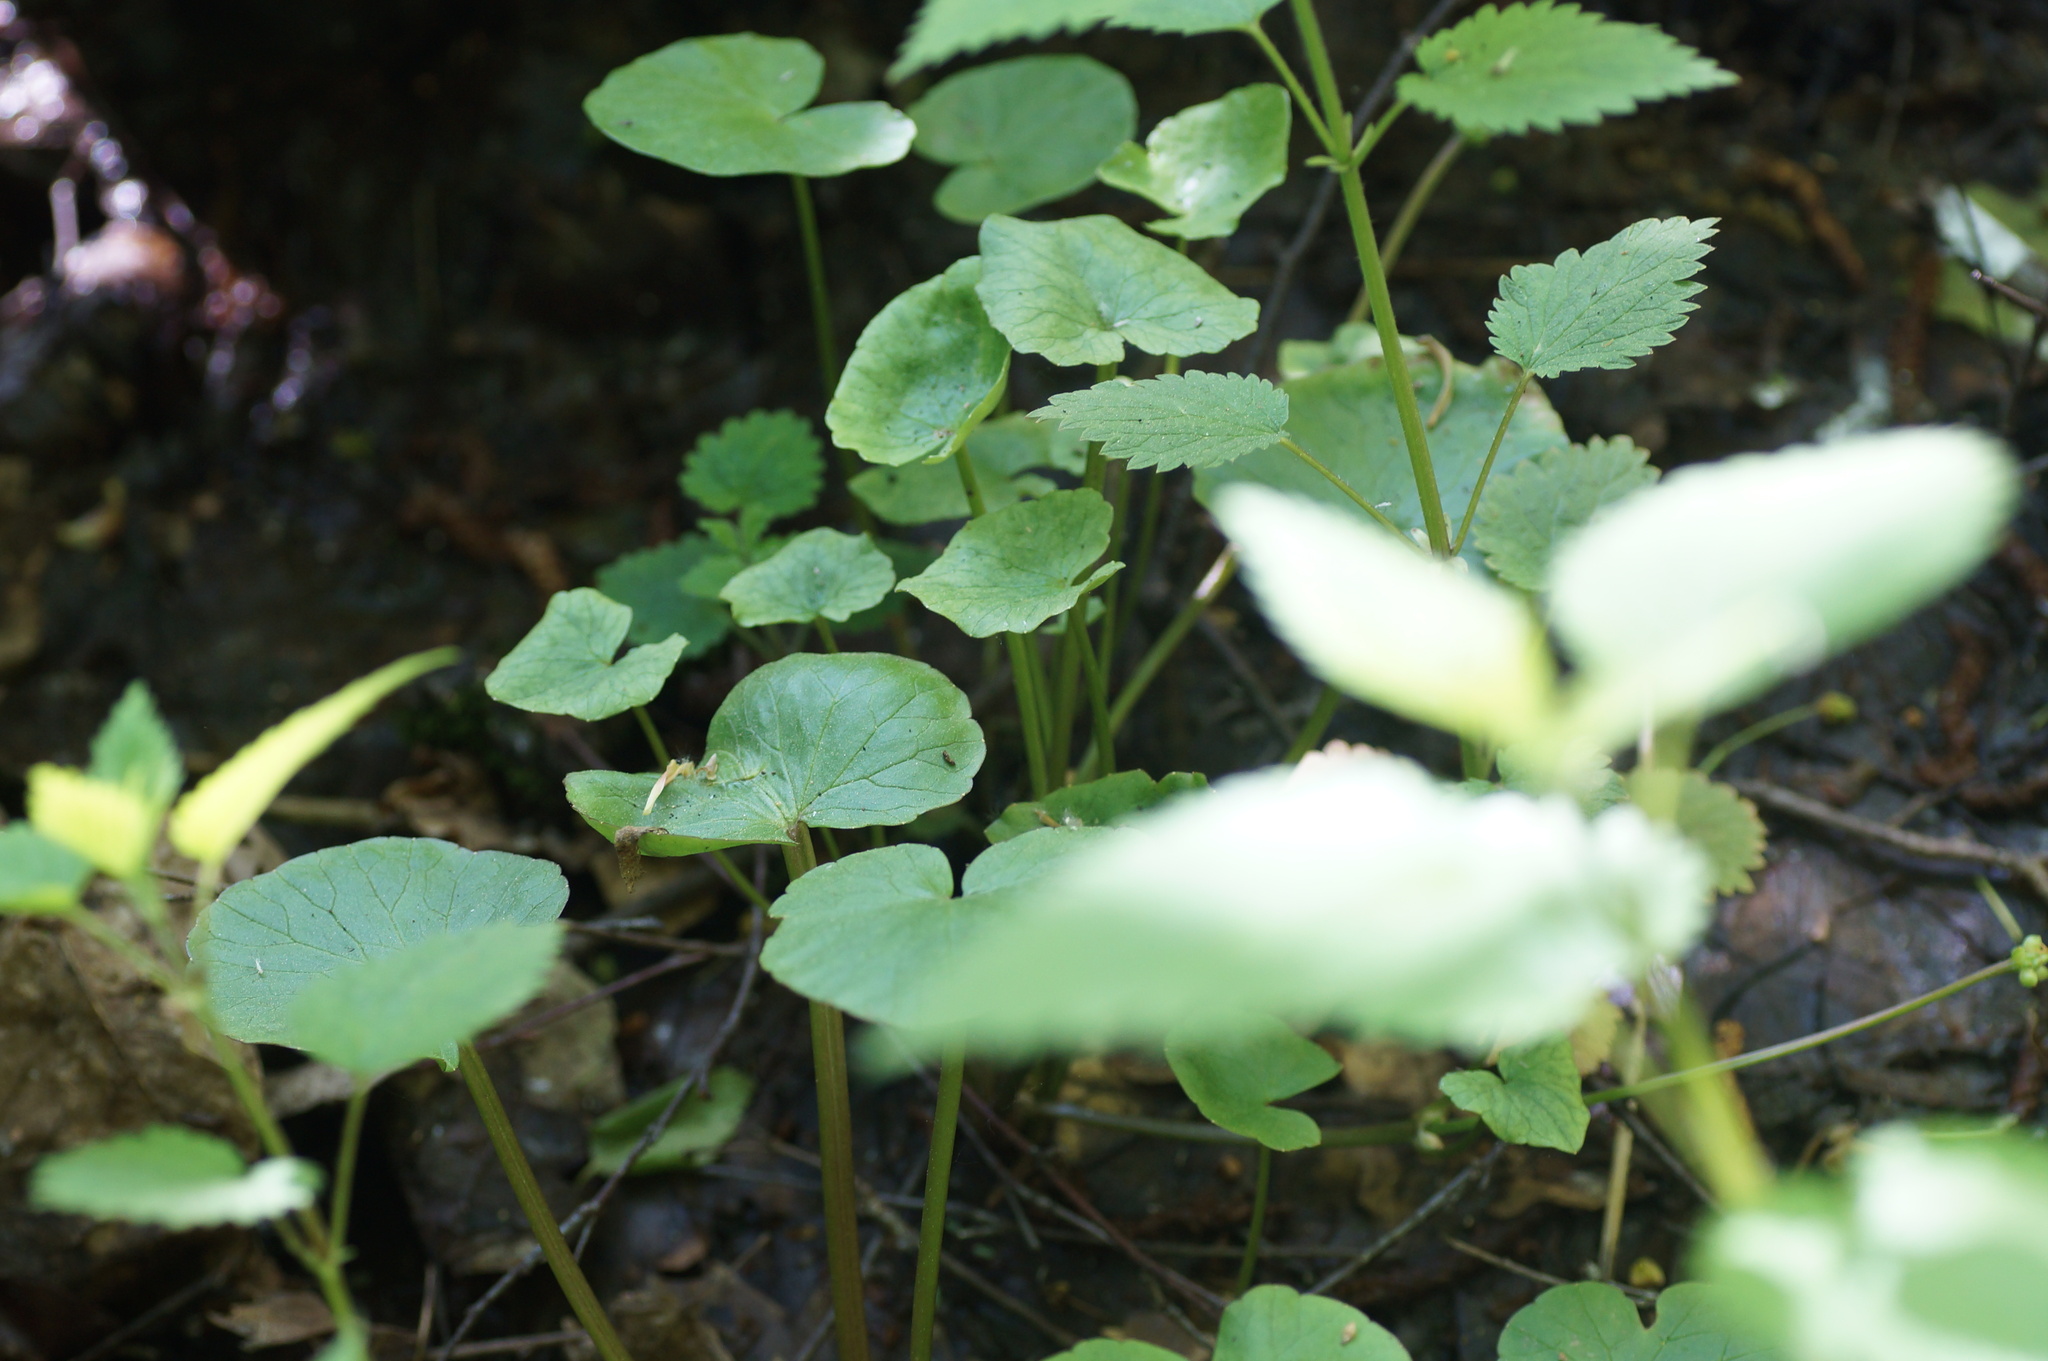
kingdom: Plantae
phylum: Tracheophyta
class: Magnoliopsida
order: Ranunculales
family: Ranunculaceae
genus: Ficaria
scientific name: Ficaria verna
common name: Lesser celandine
